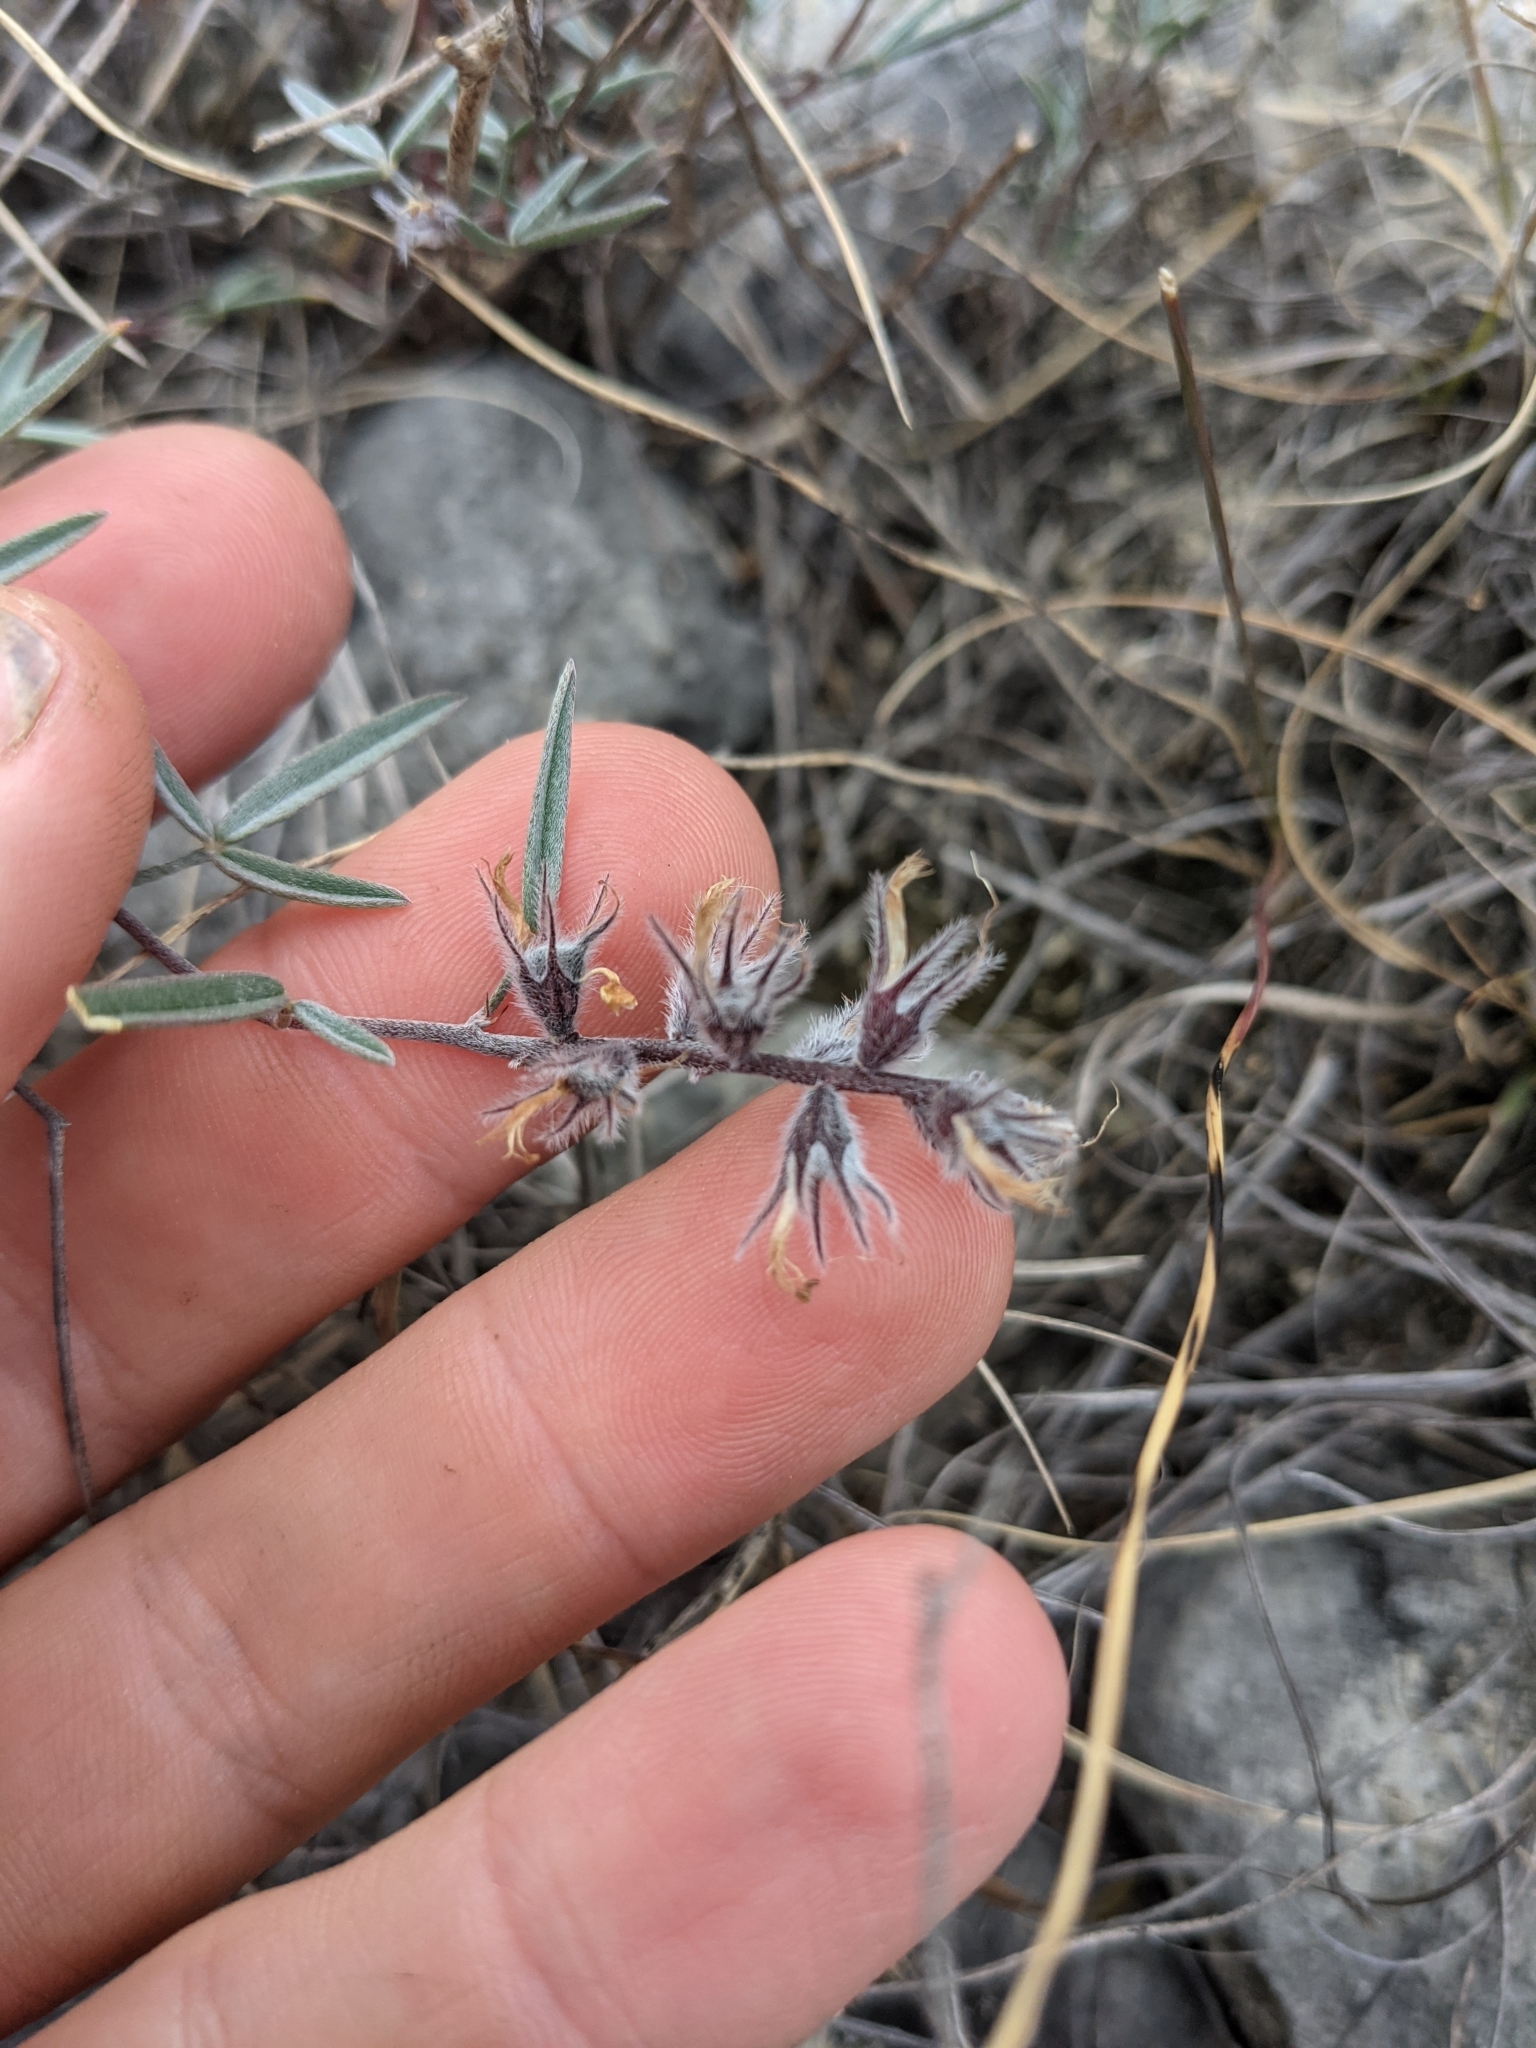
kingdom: Plantae
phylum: Tracheophyta
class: Magnoliopsida
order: Fabales
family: Fabaceae
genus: Dalea
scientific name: Dalea hallii
